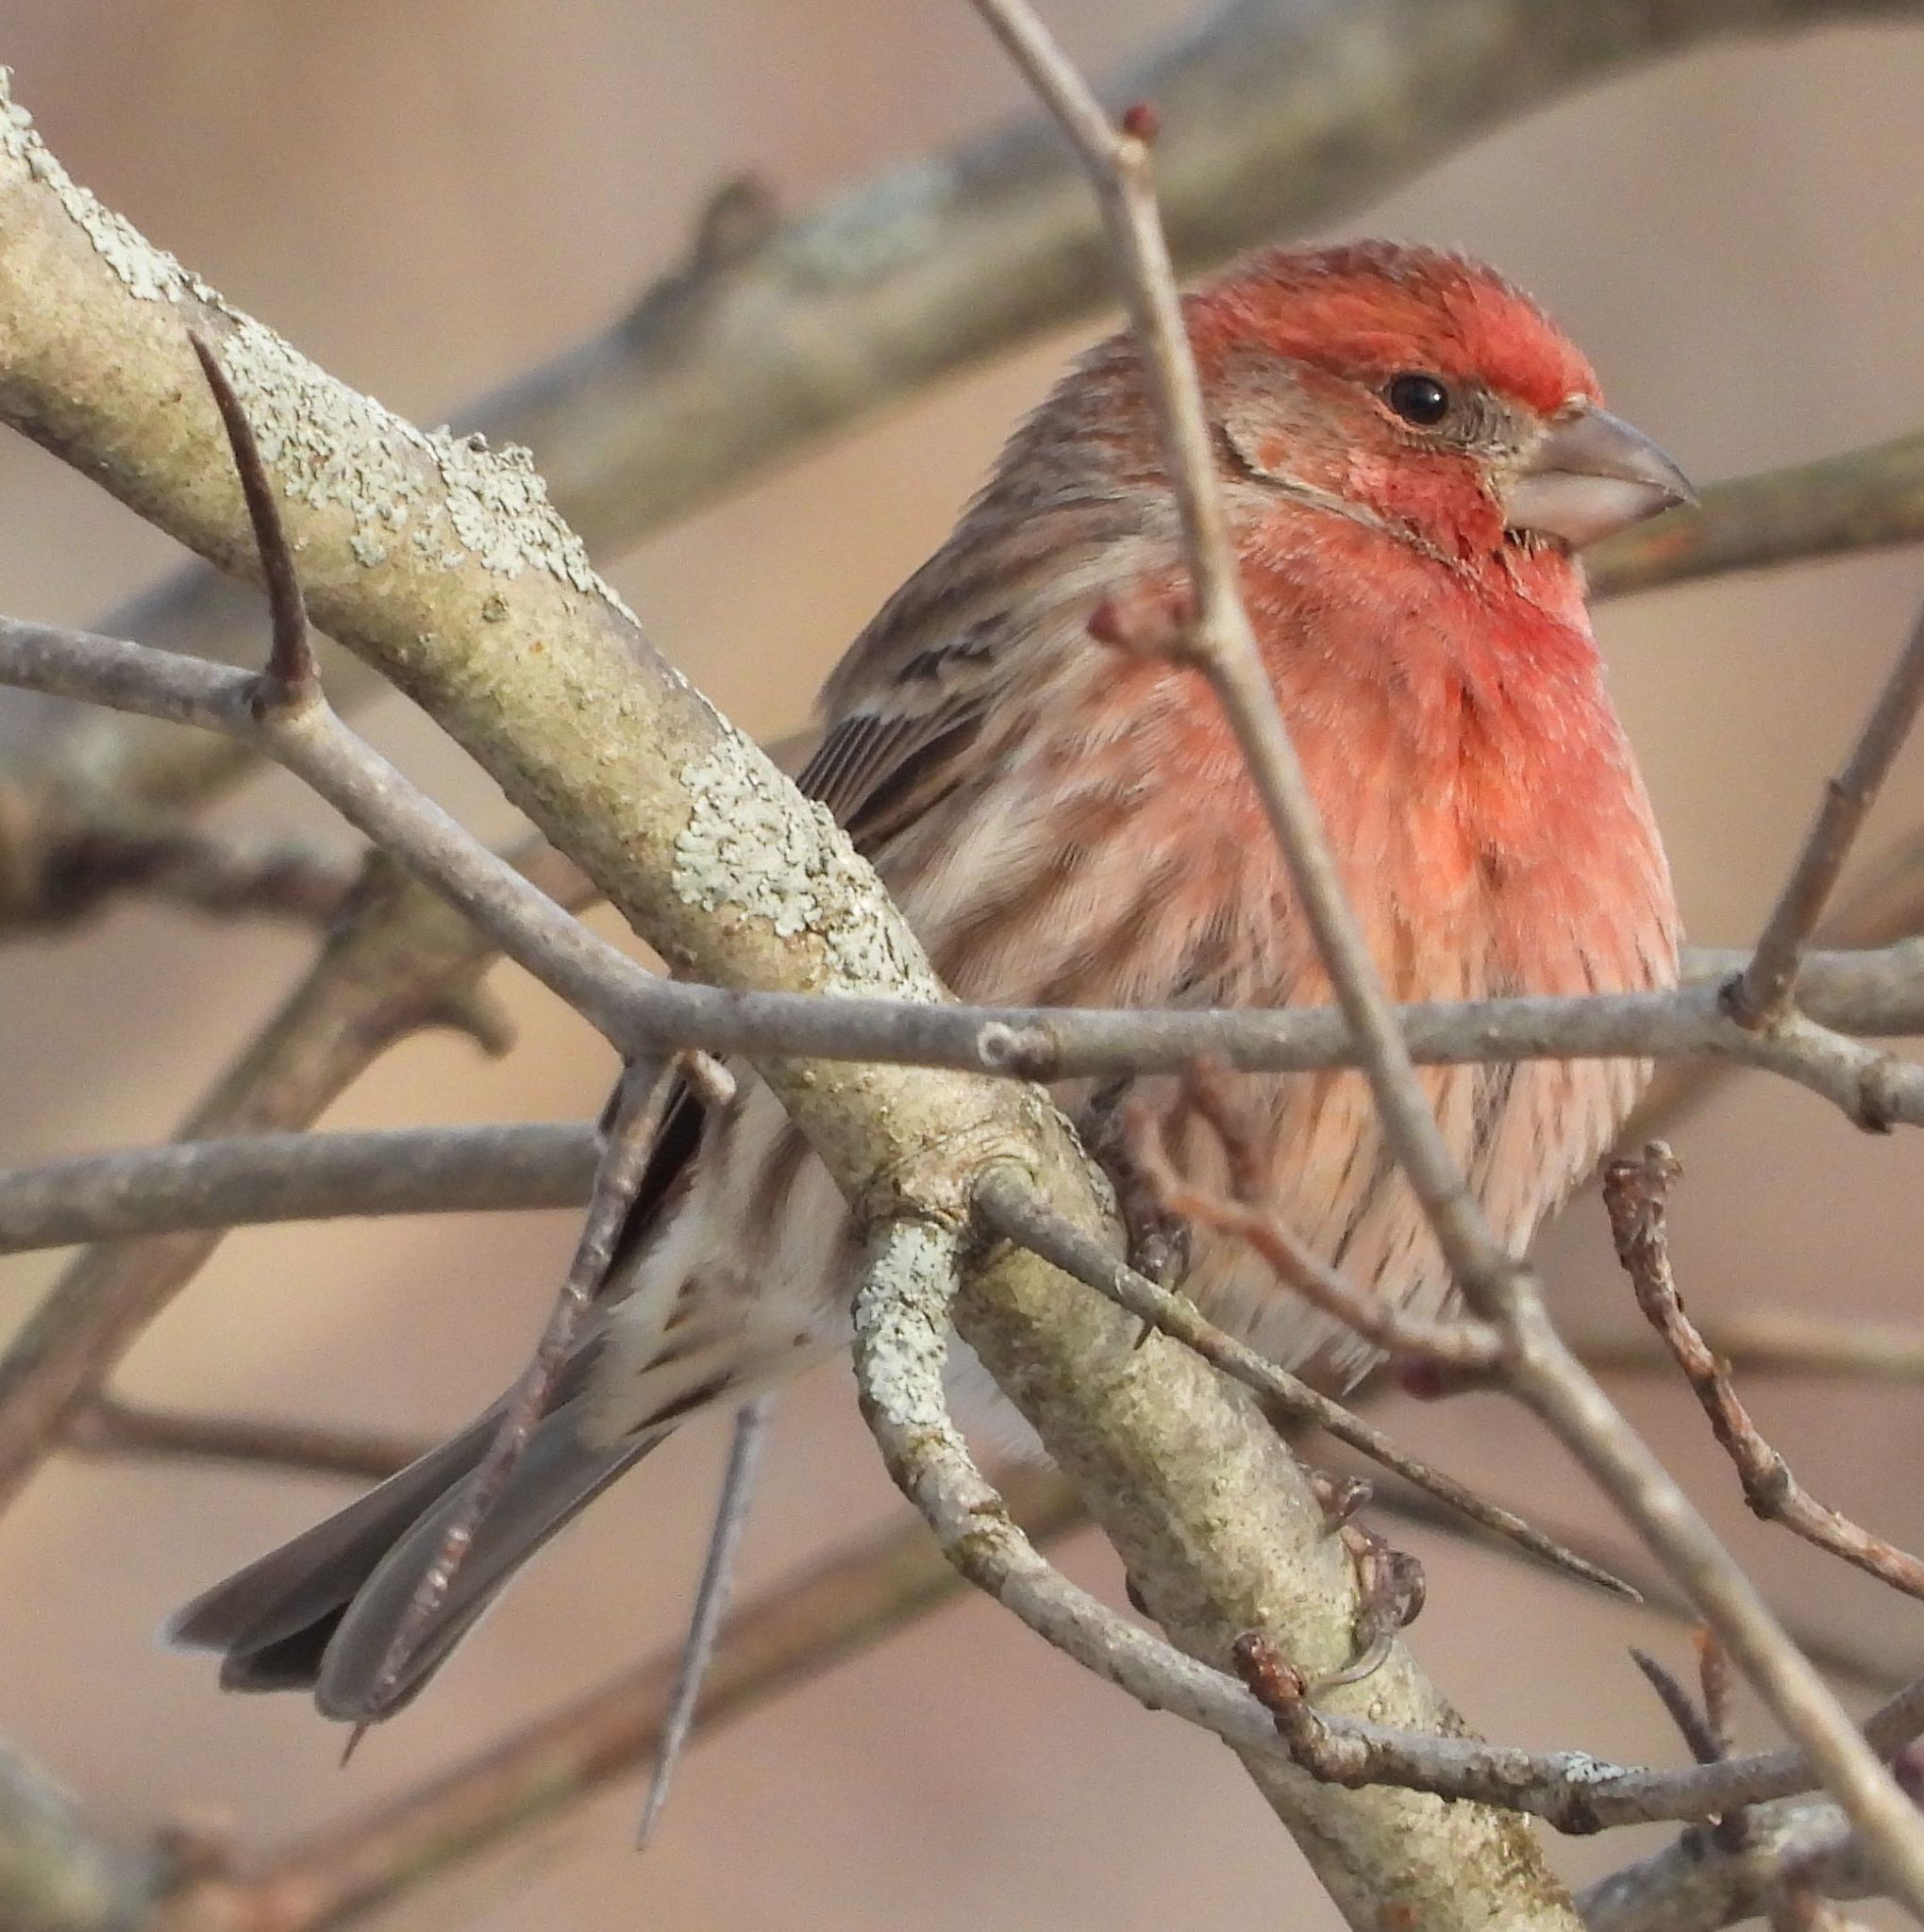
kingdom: Animalia
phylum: Chordata
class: Aves
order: Passeriformes
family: Fringillidae
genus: Haemorhous
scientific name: Haemorhous mexicanus
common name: House finch
